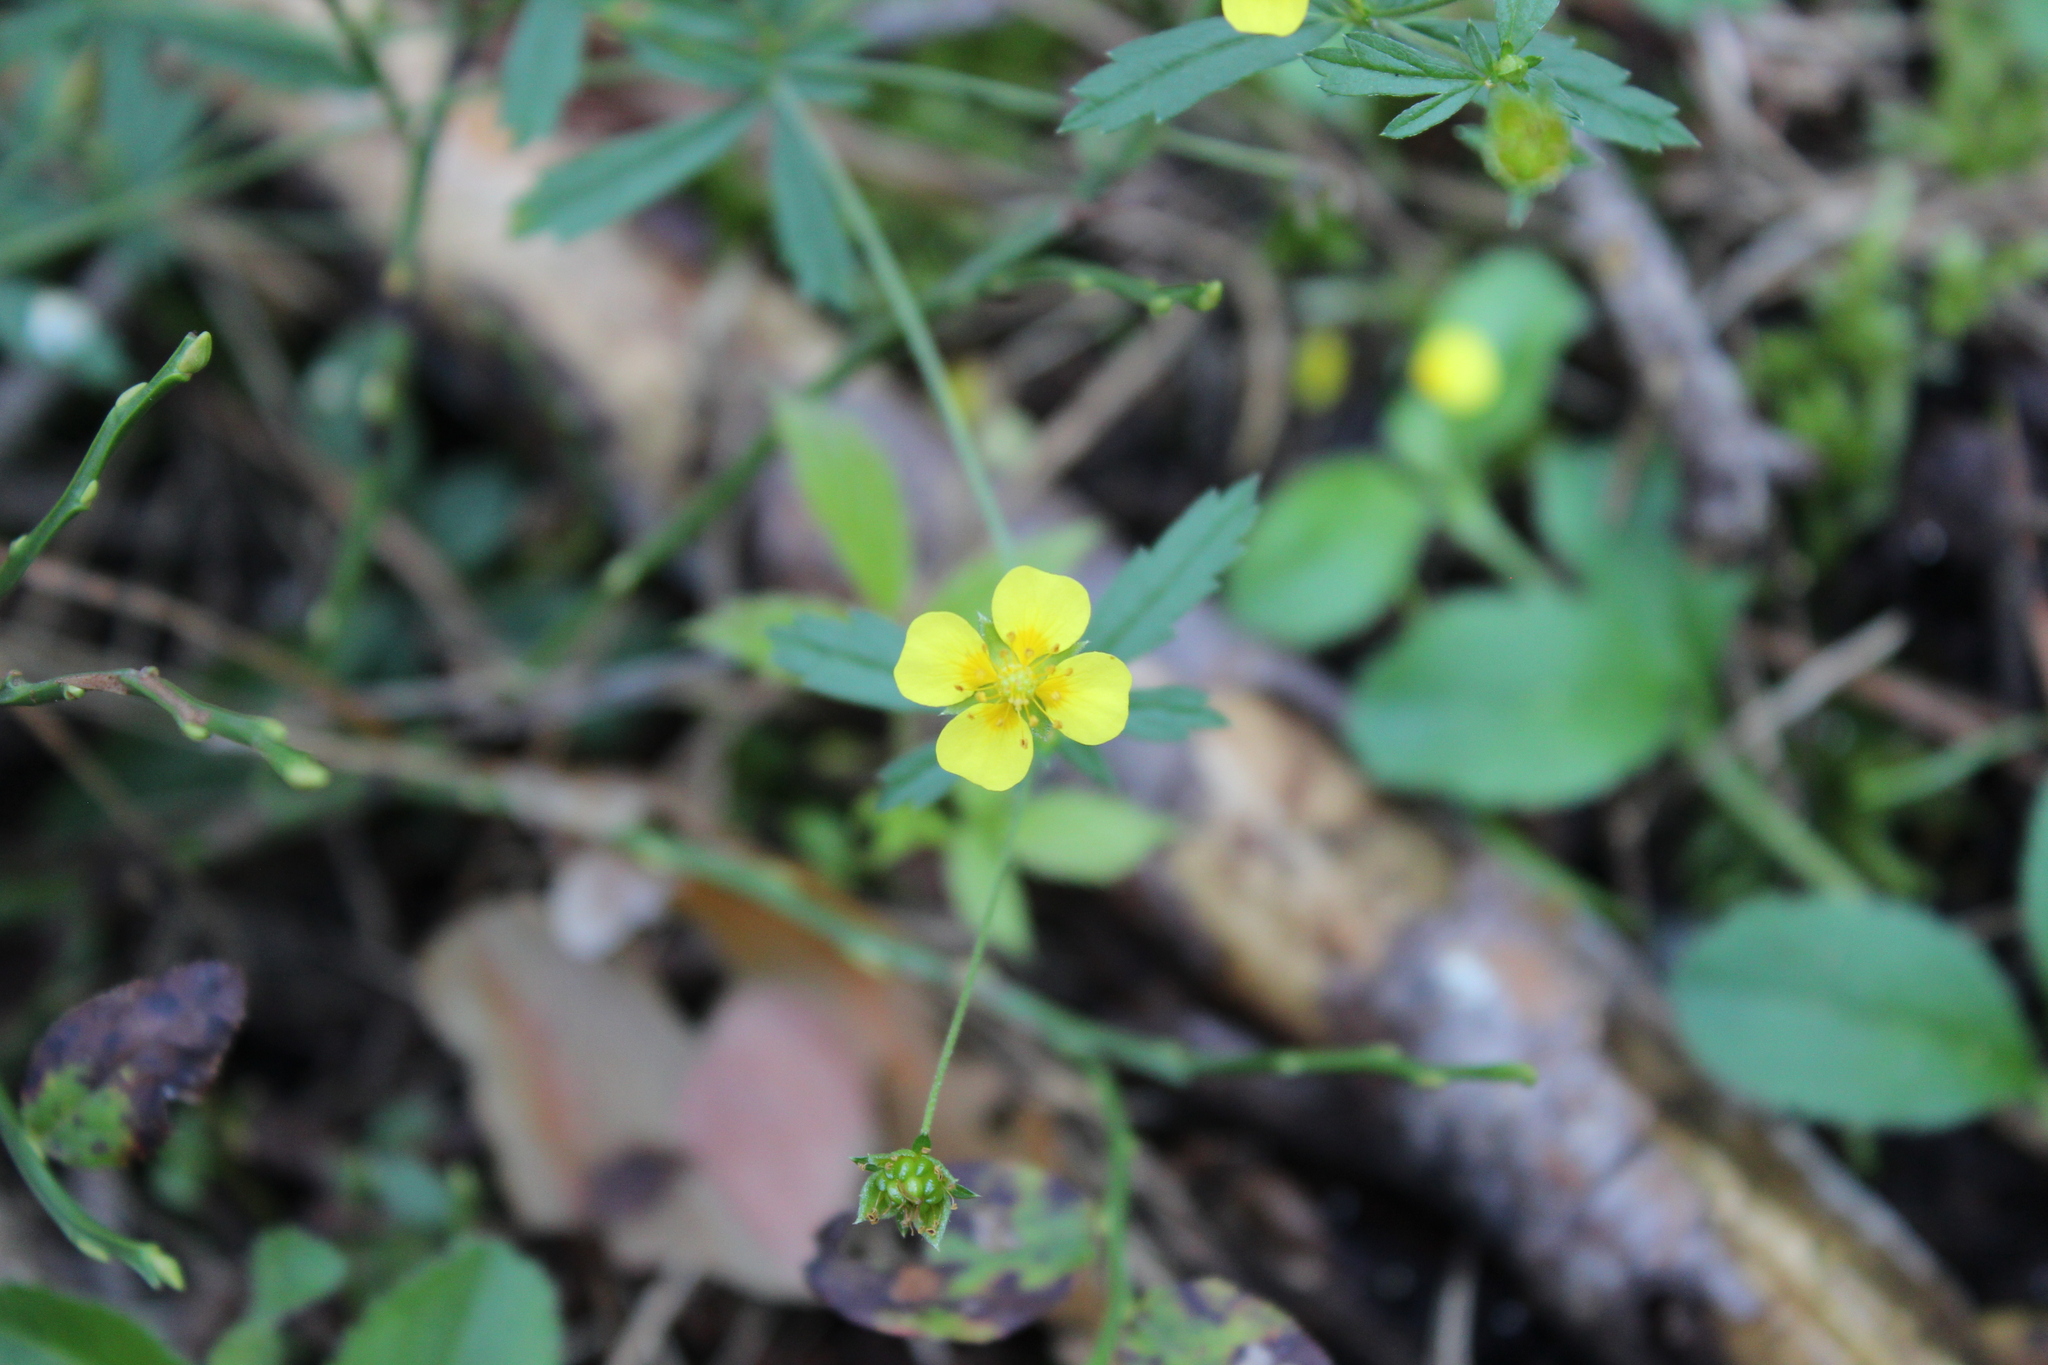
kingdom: Plantae
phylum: Tracheophyta
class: Magnoliopsida
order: Rosales
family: Rosaceae
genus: Potentilla
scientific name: Potentilla erecta
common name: Tormentil
